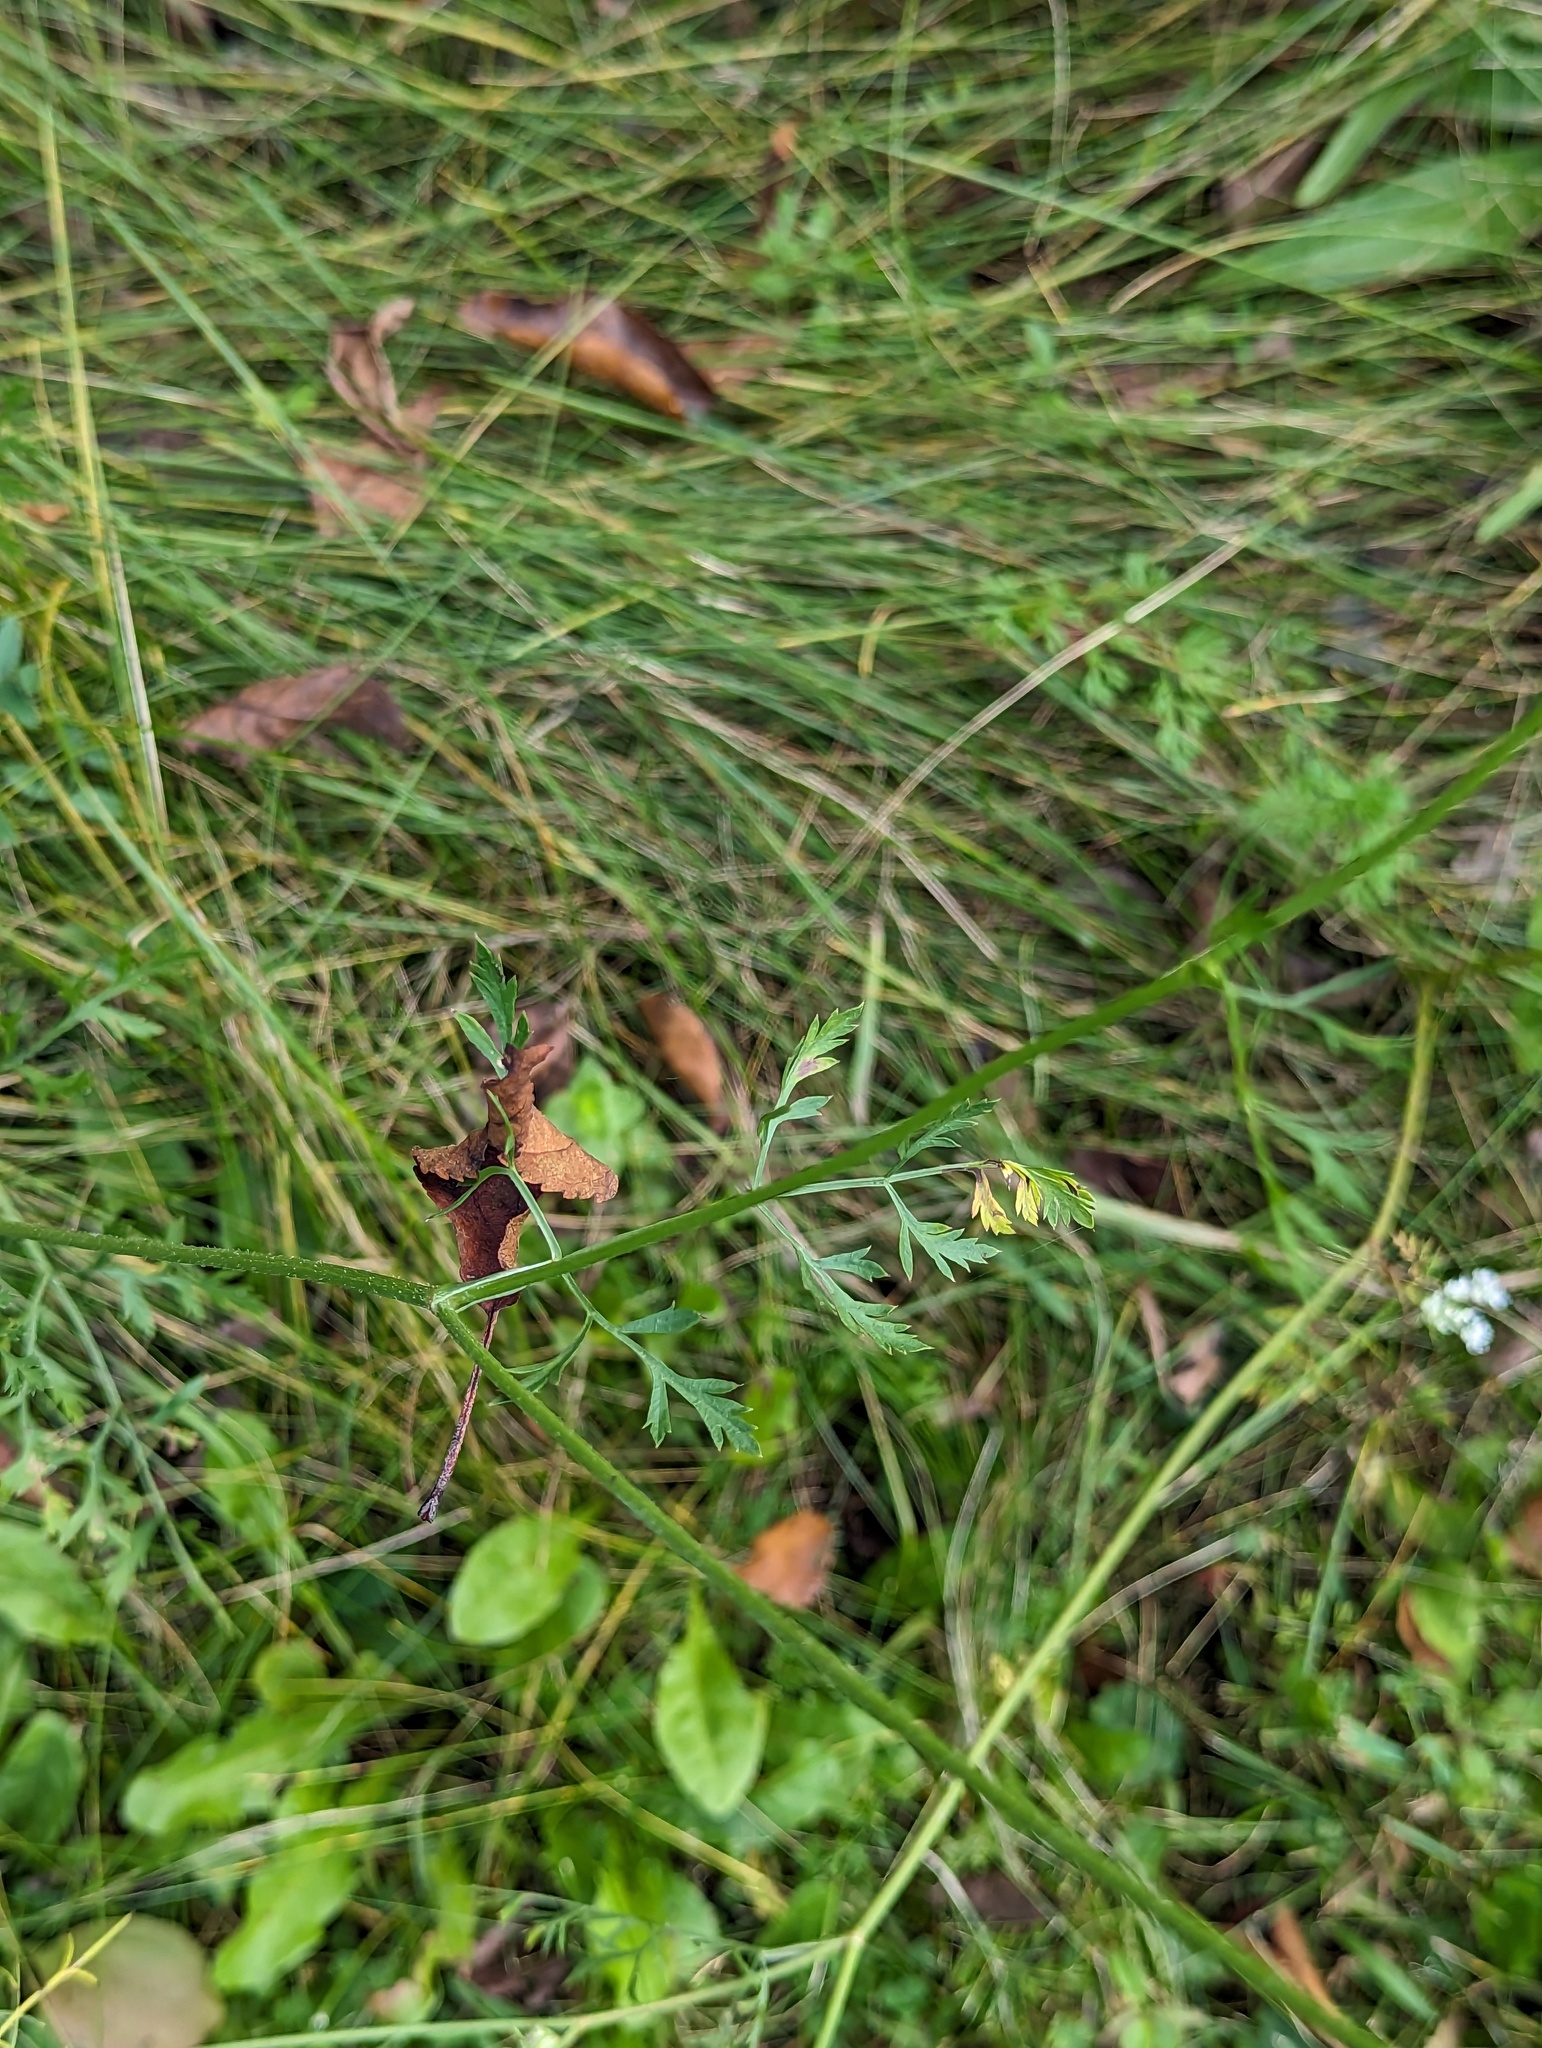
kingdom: Plantae
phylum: Tracheophyta
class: Magnoliopsida
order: Apiales
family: Apiaceae
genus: Daucus
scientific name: Daucus carota
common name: Wild carrot
